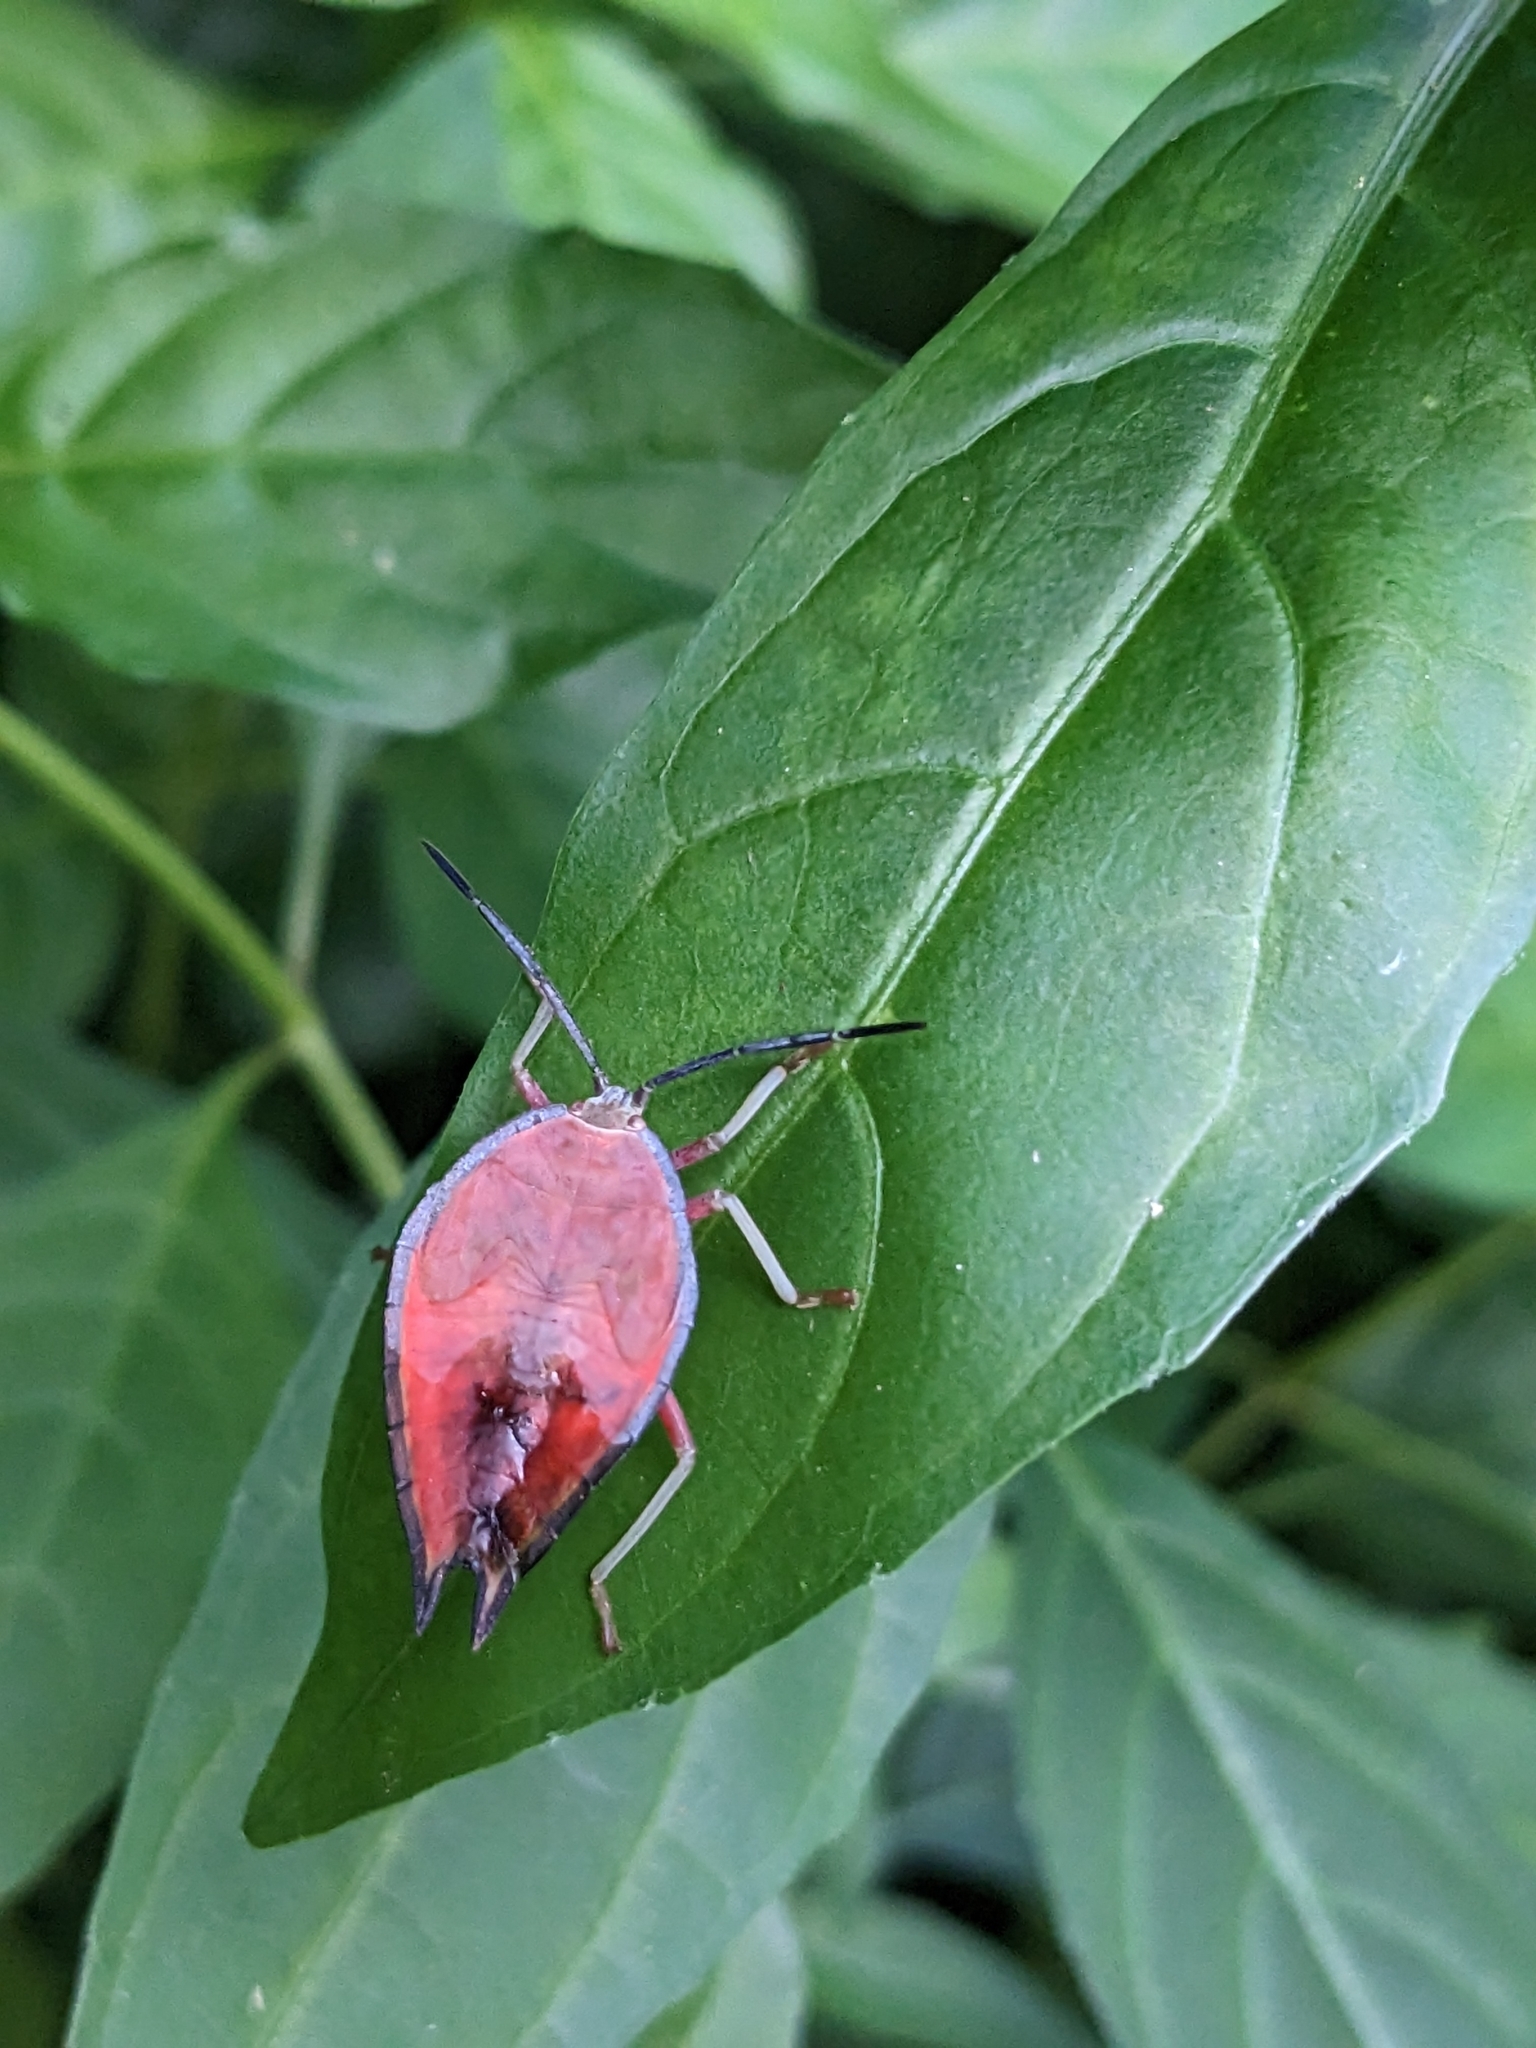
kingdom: Animalia
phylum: Arthropoda
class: Insecta
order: Hemiptera
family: Tessaratomidae
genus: Lyramorpha
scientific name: Lyramorpha rosea
